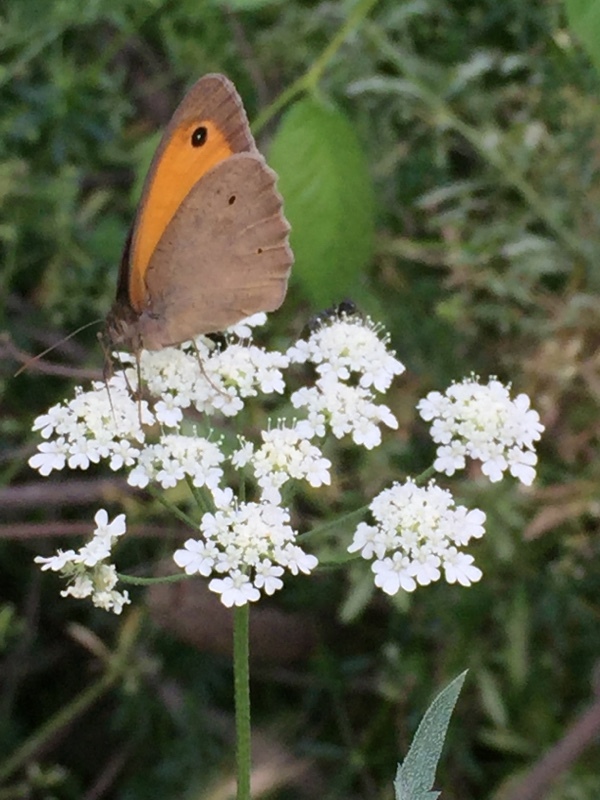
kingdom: Animalia
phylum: Arthropoda
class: Insecta
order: Lepidoptera
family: Nymphalidae
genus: Maniola
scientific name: Maniola jurtina
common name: Meadow brown
